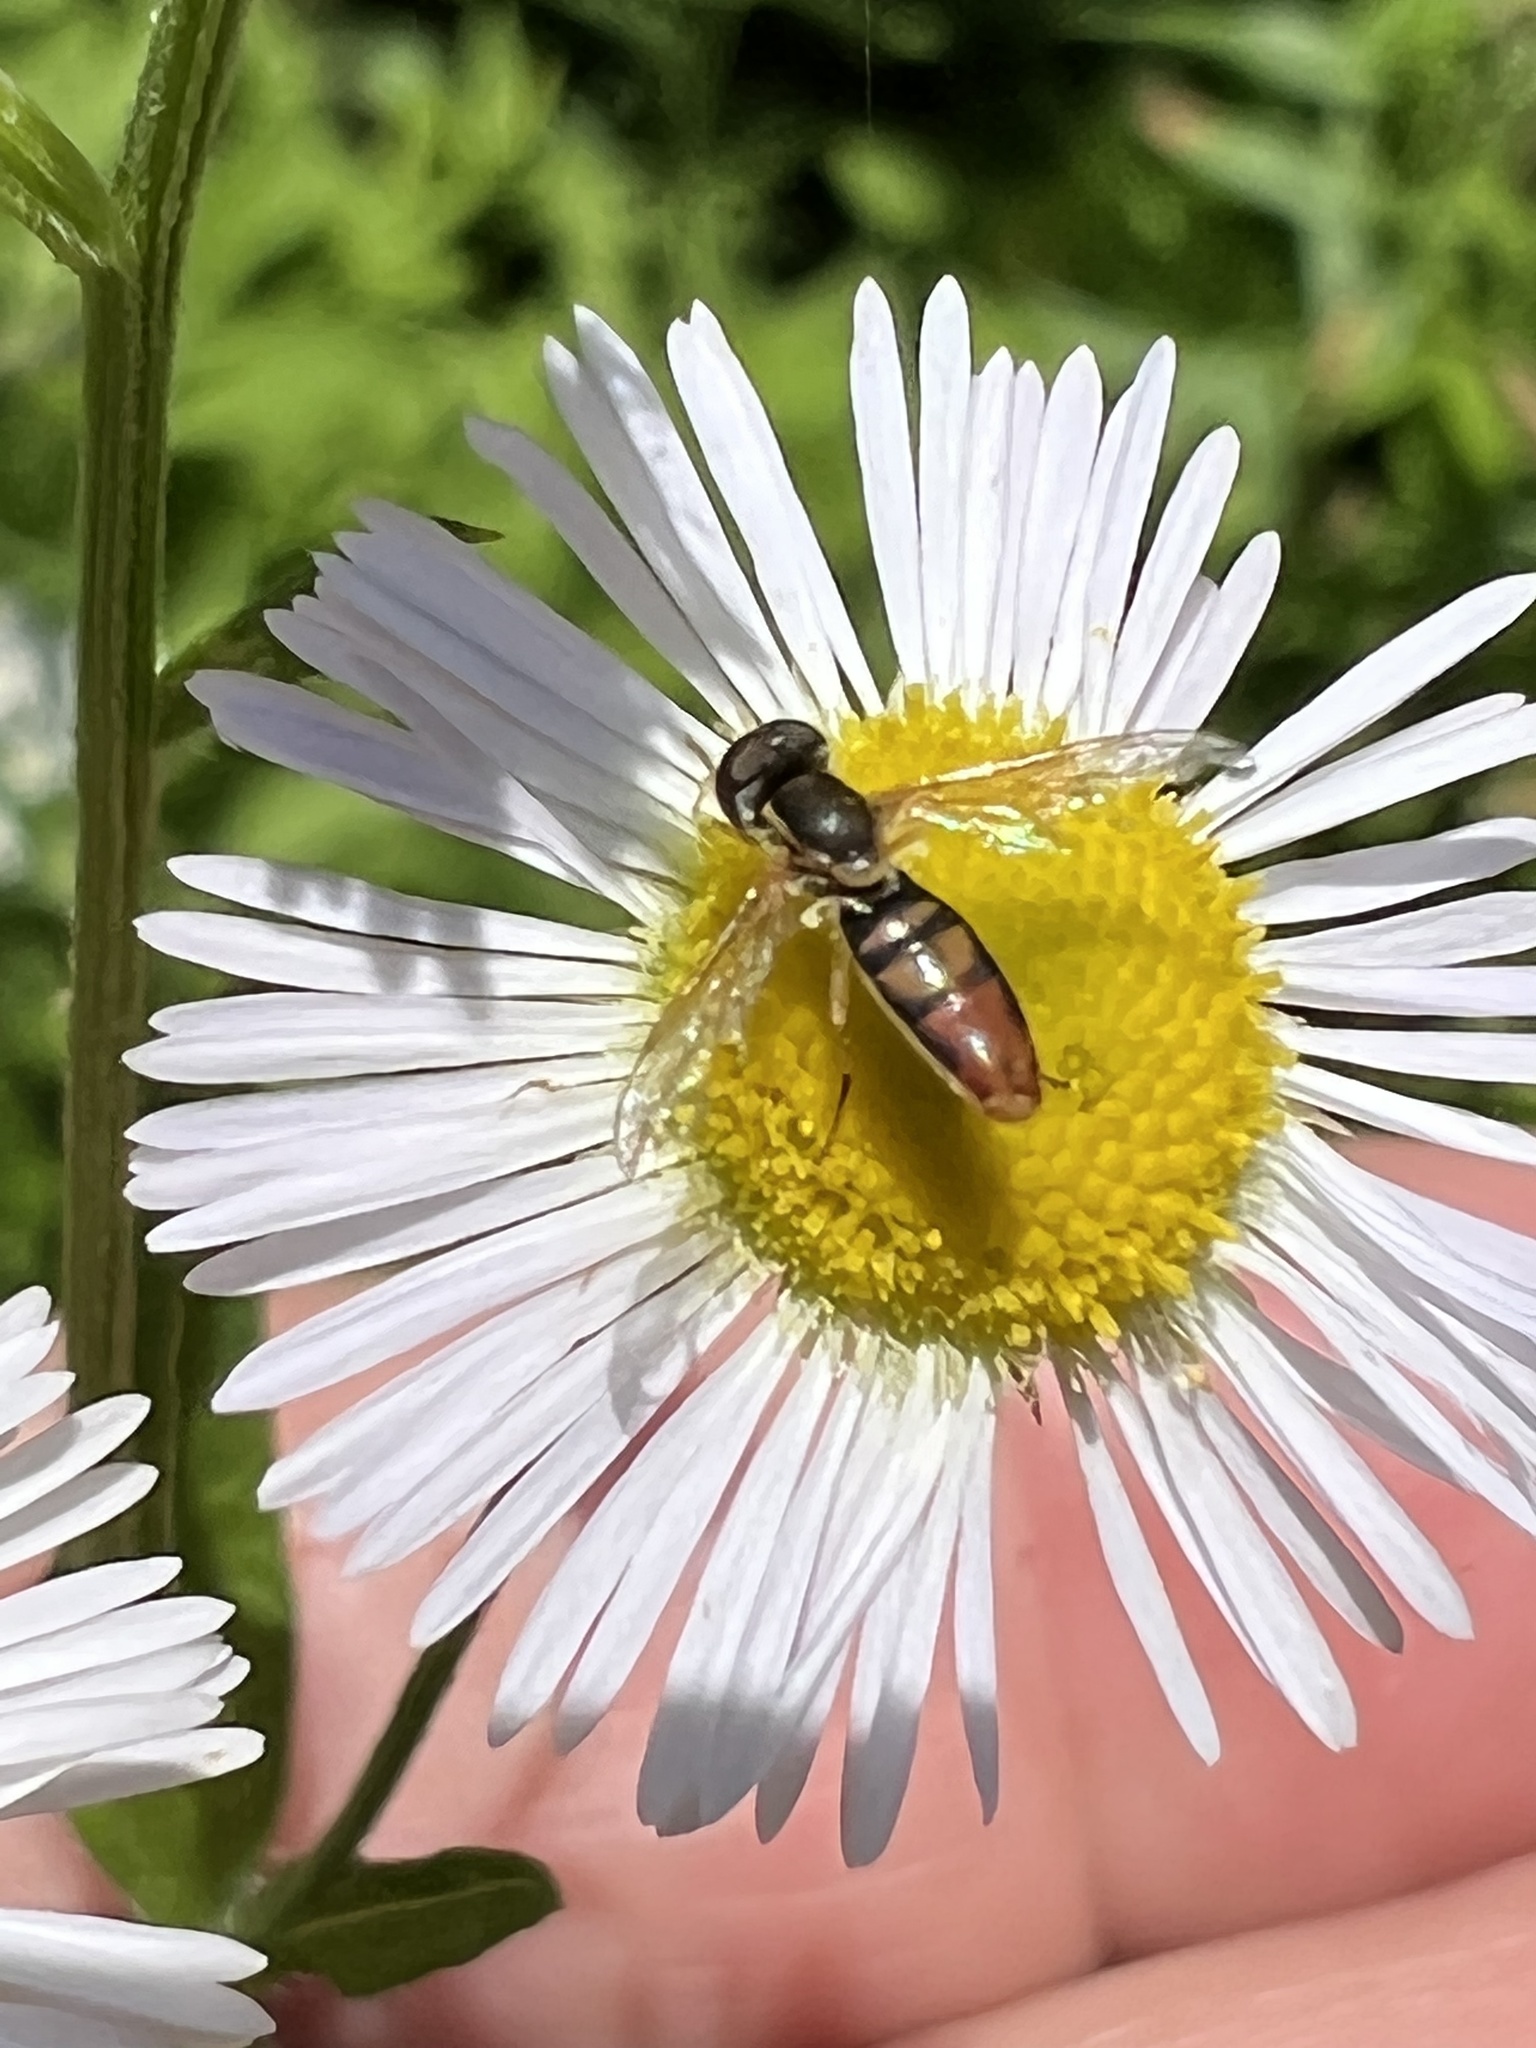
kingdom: Animalia
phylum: Arthropoda
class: Insecta
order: Diptera
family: Syrphidae
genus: Toxomerus
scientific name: Toxomerus marginatus
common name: Syrphid fly
